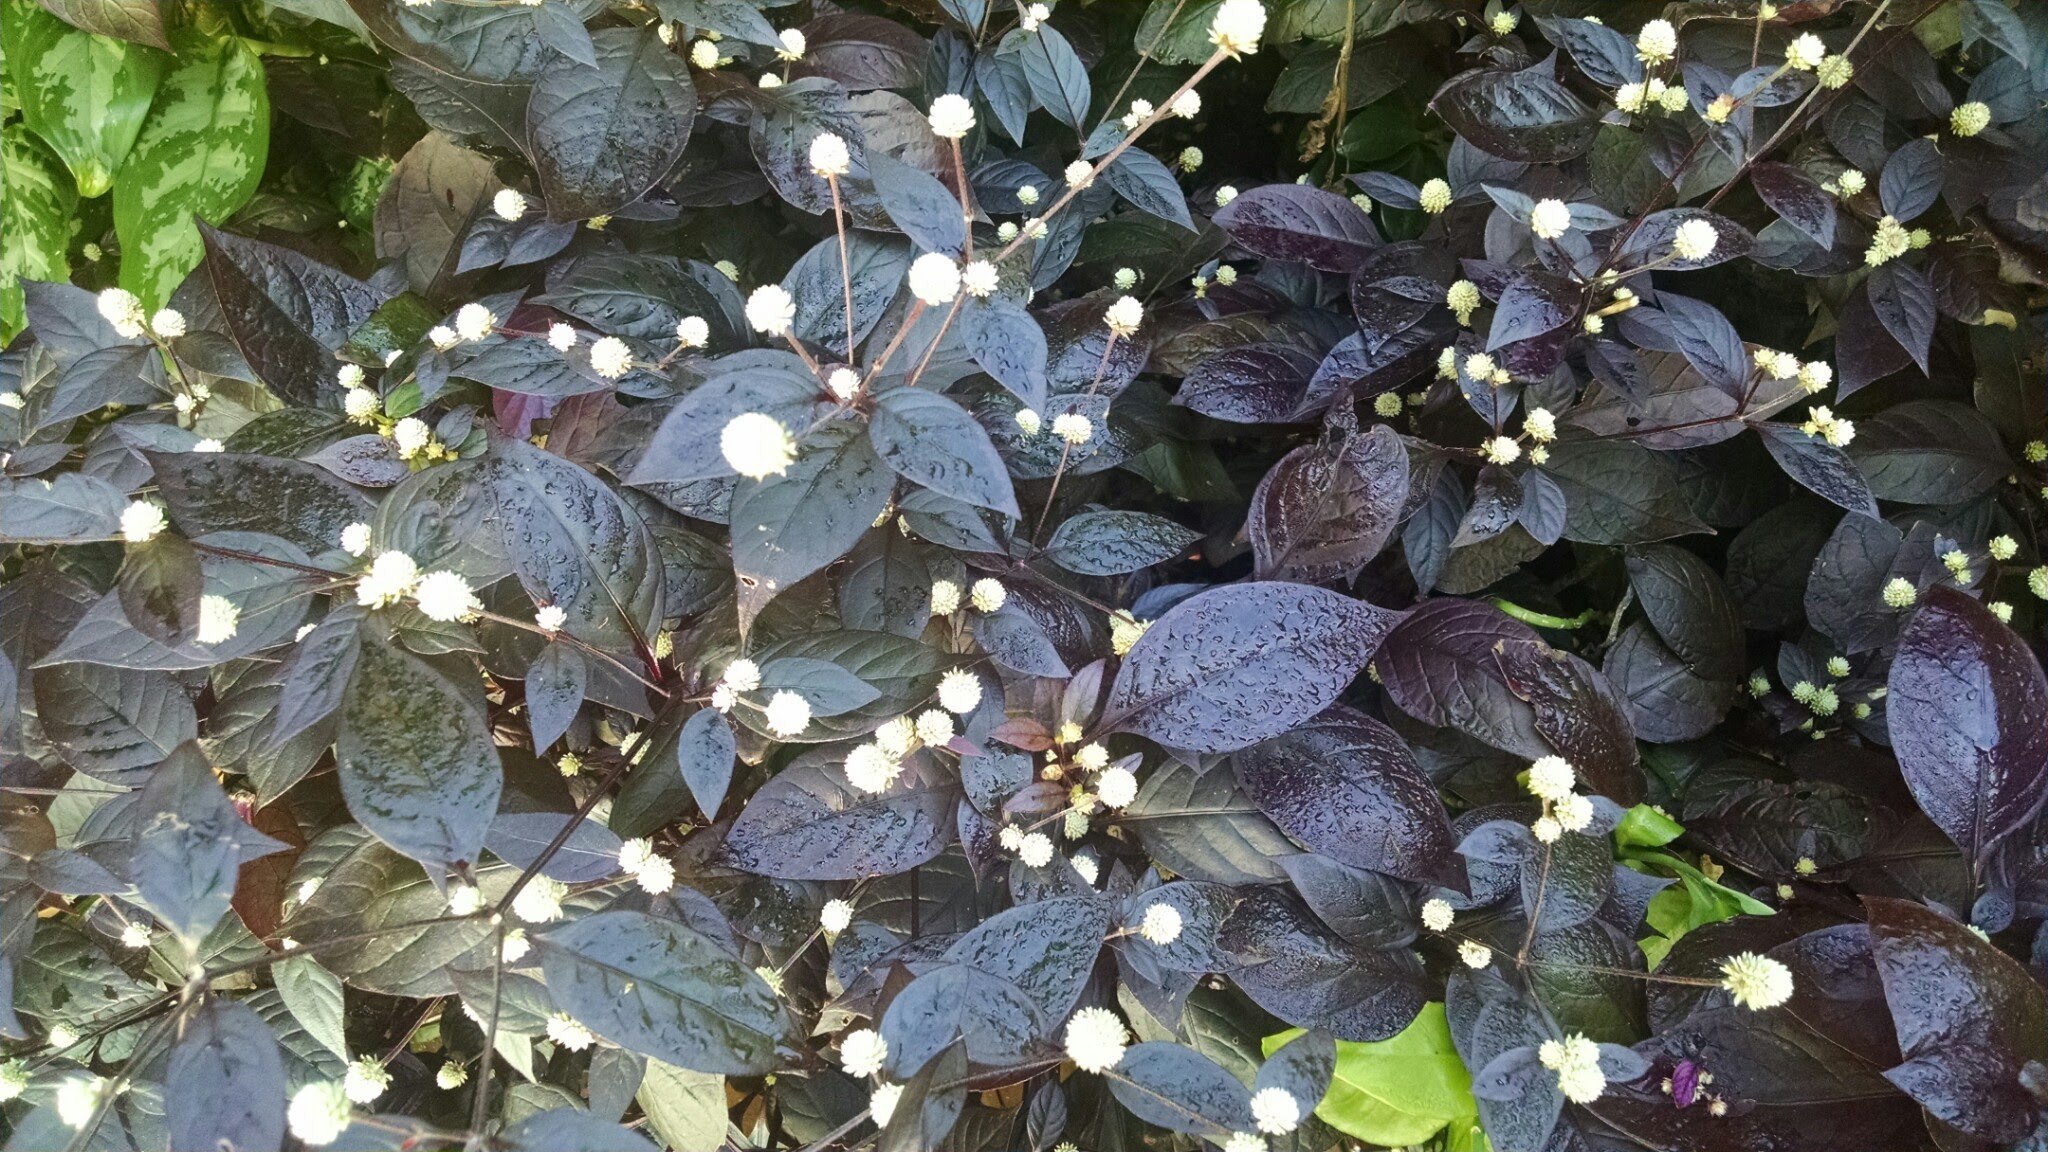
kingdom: Plantae
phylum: Tracheophyta
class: Magnoliopsida
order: Caryophyllales
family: Amaranthaceae
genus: Alternanthera
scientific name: Alternanthera brasiliana
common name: Brazilian joyweed
